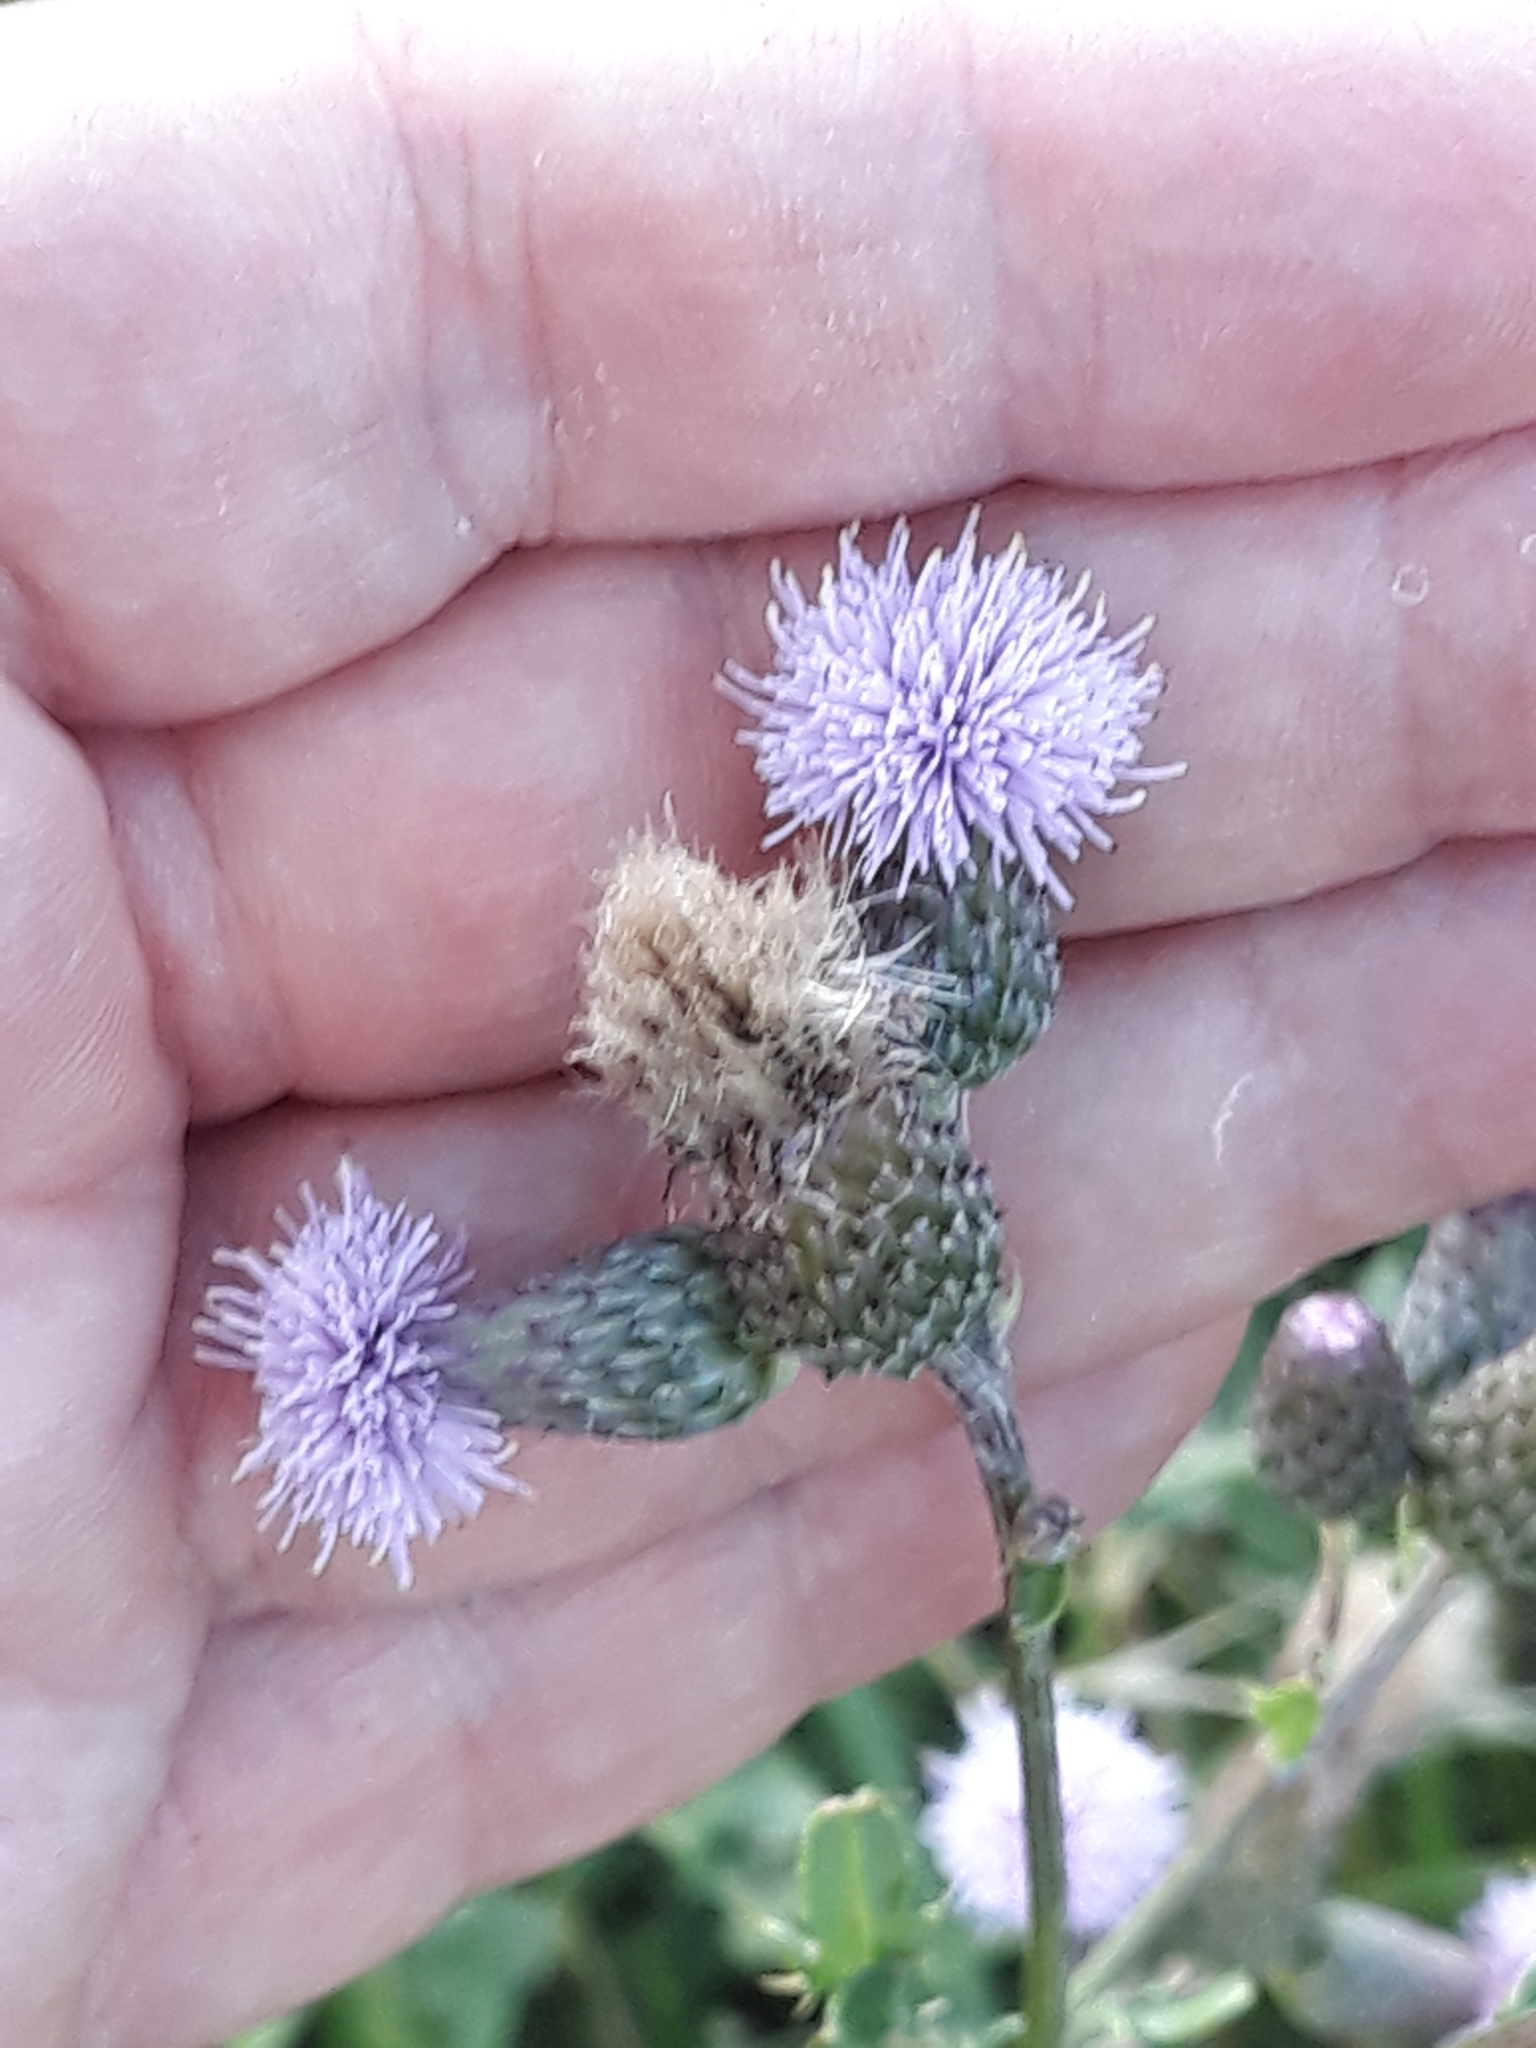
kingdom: Plantae
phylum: Tracheophyta
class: Magnoliopsida
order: Asterales
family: Asteraceae
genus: Cirsium
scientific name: Cirsium arvense
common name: Creeping thistle
